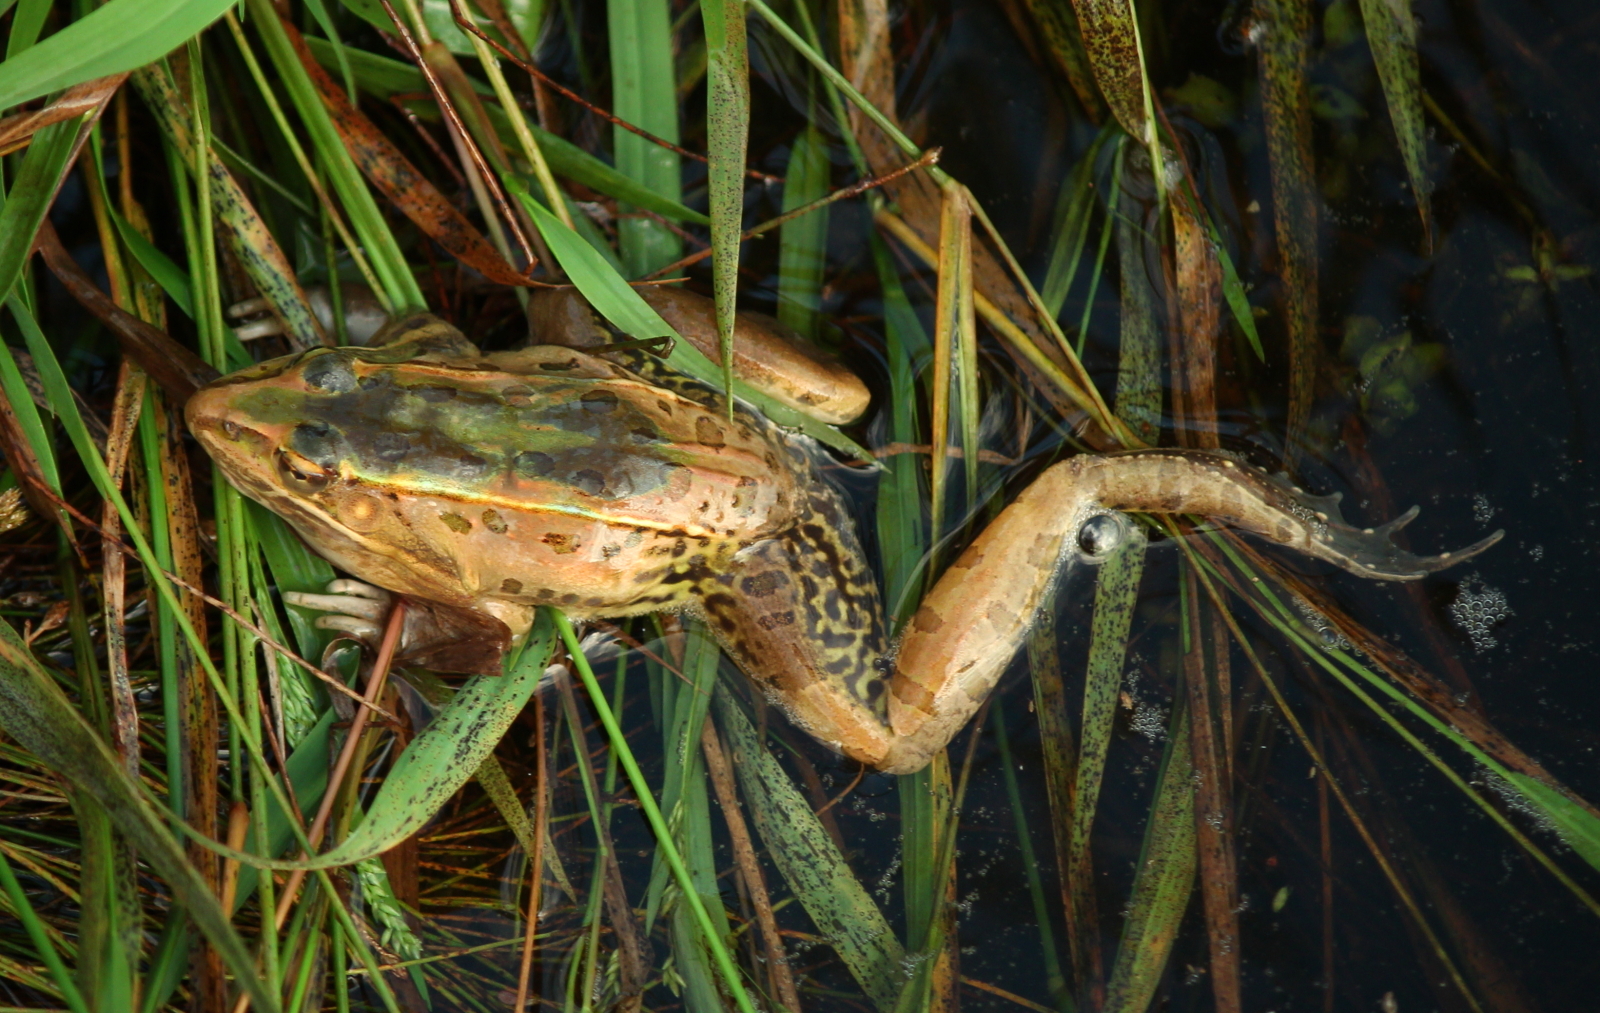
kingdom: Animalia
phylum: Chordata
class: Amphibia
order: Anura
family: Ranidae
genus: Lithobates
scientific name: Lithobates sphenocephalus
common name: Southern leopard frog
